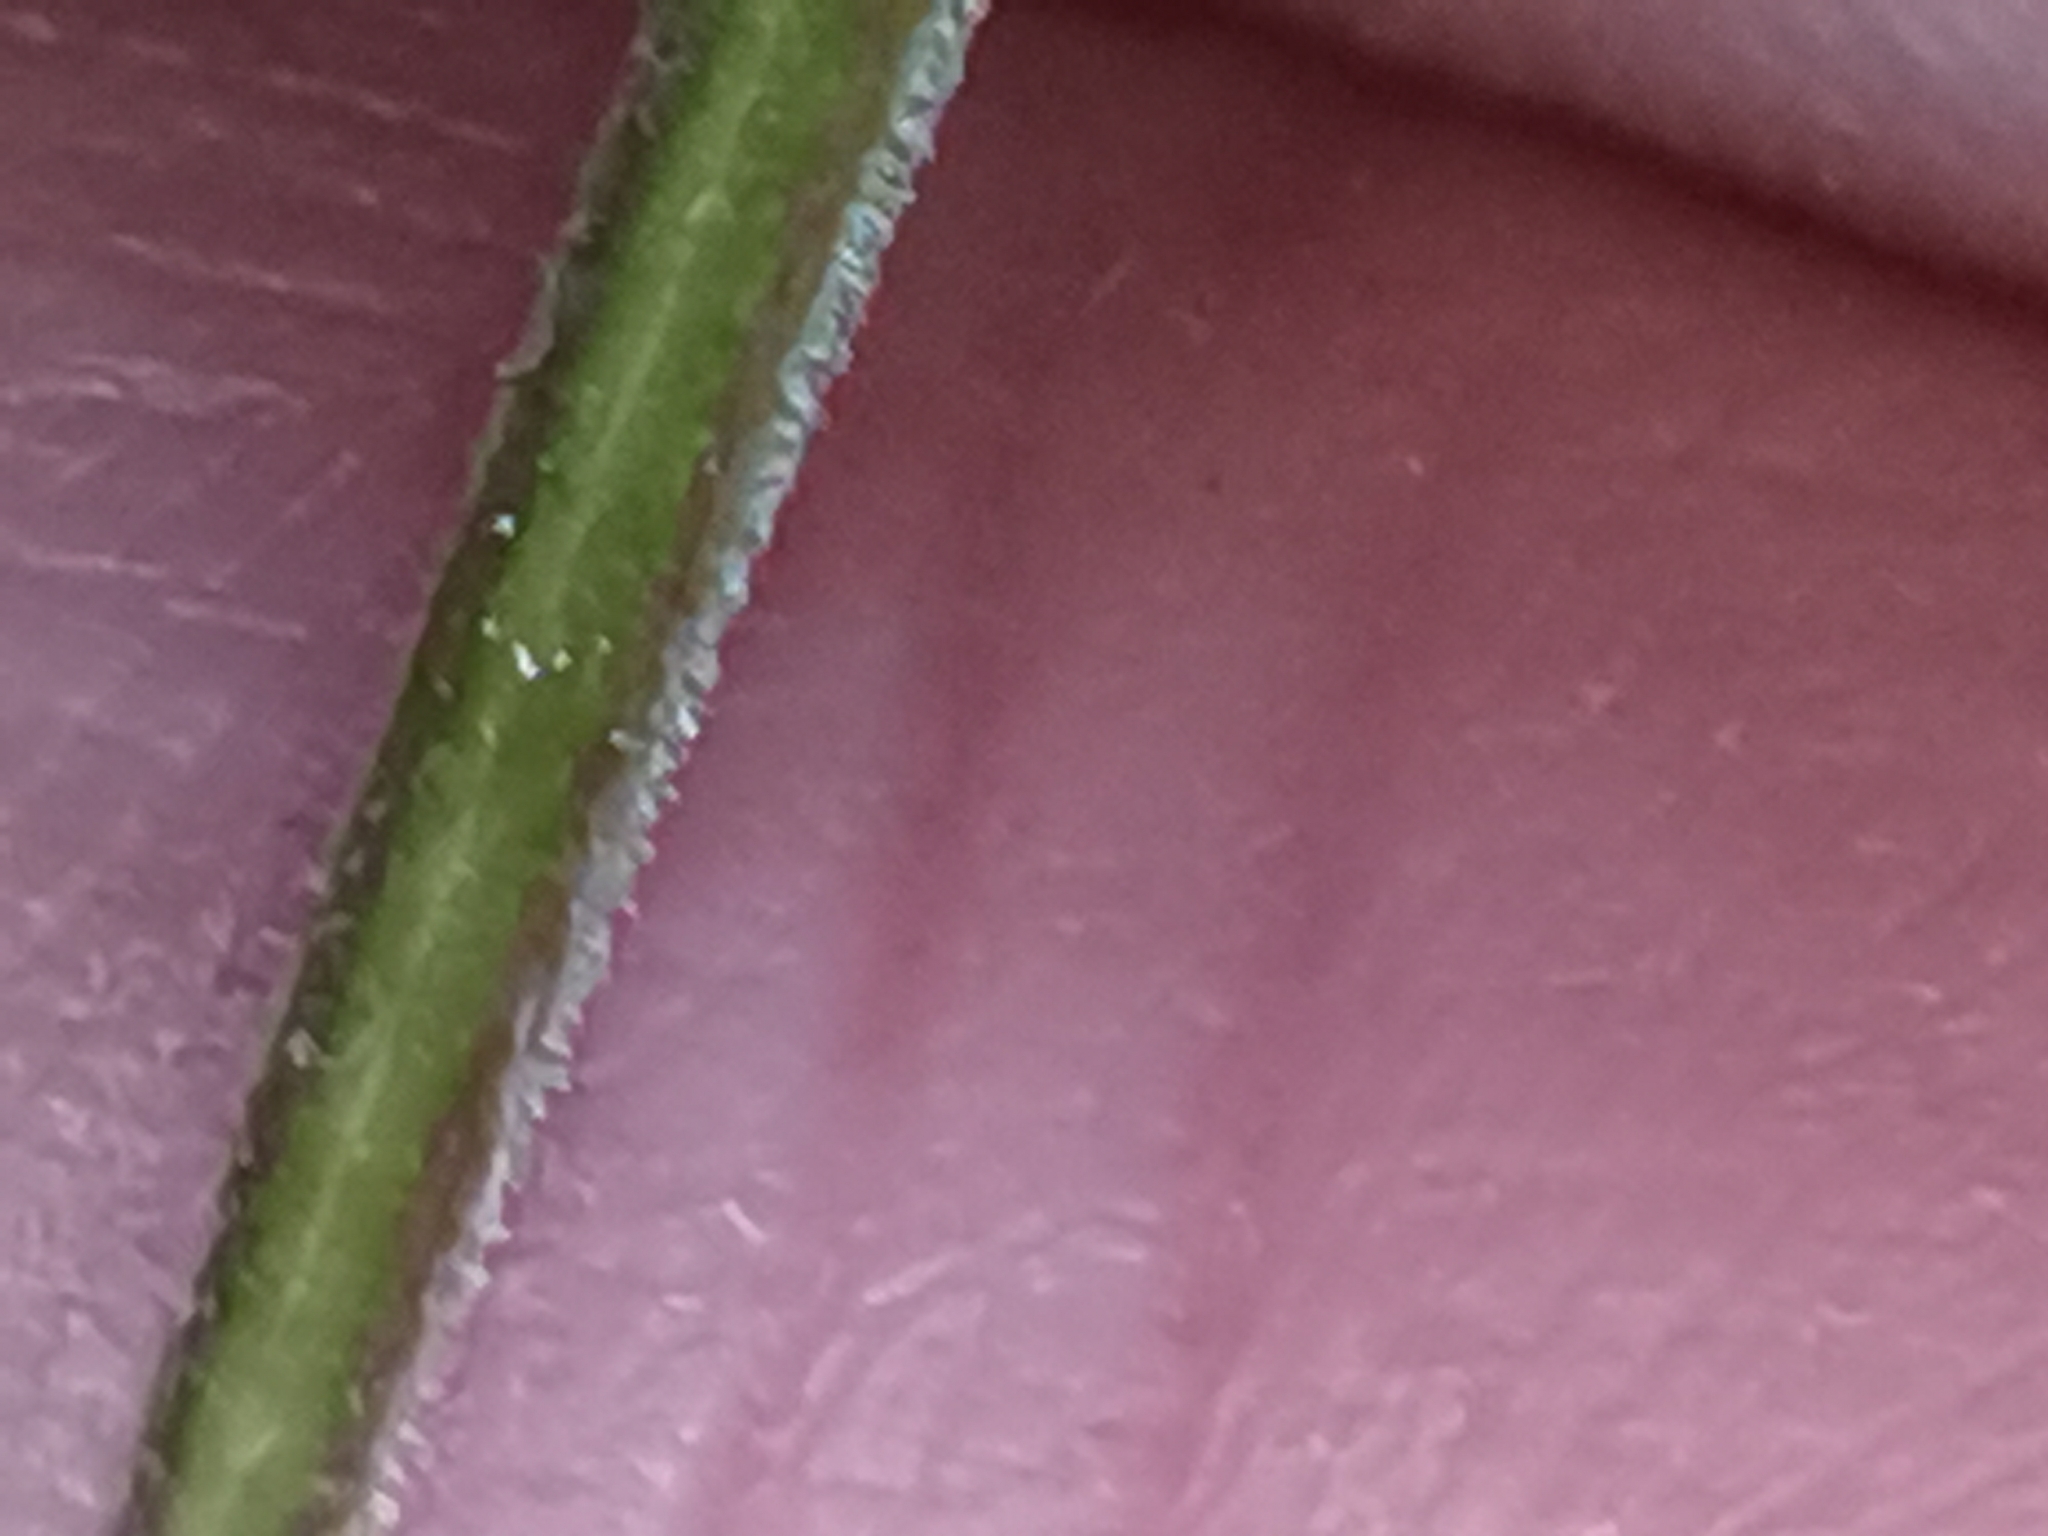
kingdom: Plantae
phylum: Tracheophyta
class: Magnoliopsida
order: Myrtales
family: Onagraceae
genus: Epilobium
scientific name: Epilobium montanum
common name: Broad-leaved willowherb
